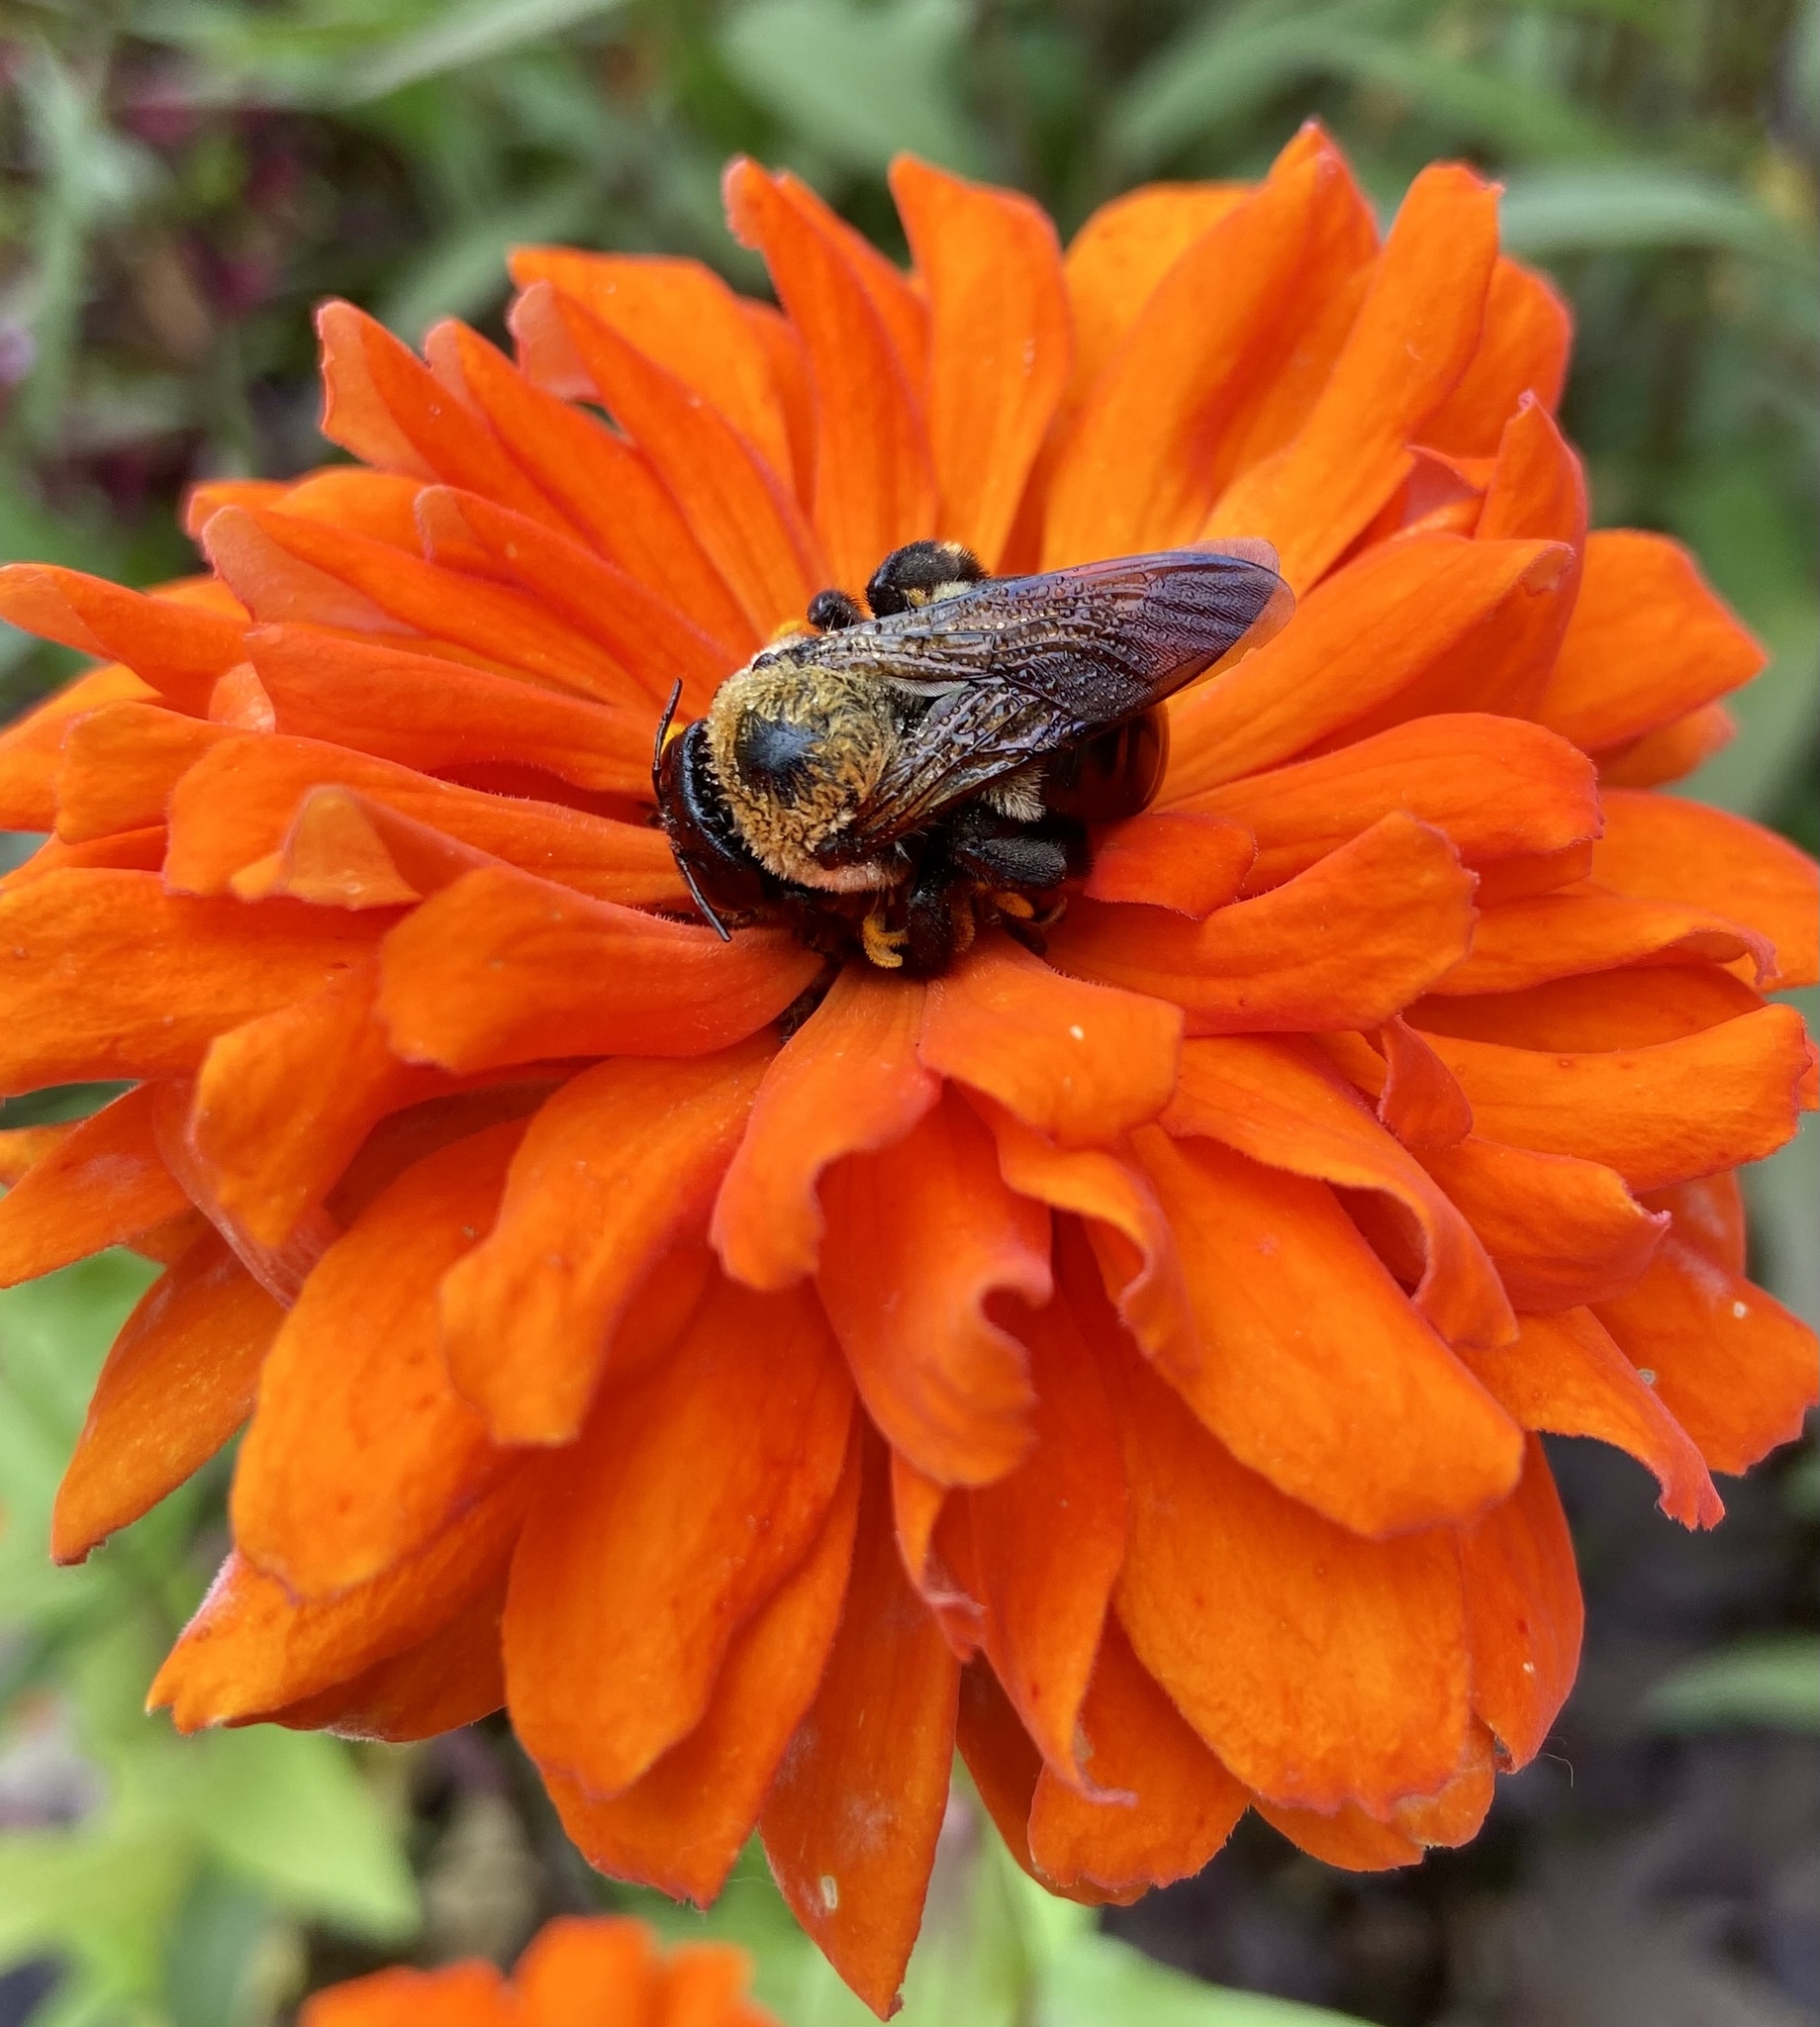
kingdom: Animalia
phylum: Arthropoda
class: Insecta
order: Hymenoptera
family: Apidae
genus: Xylocopa
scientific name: Xylocopa virginica
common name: Carpenter bee
